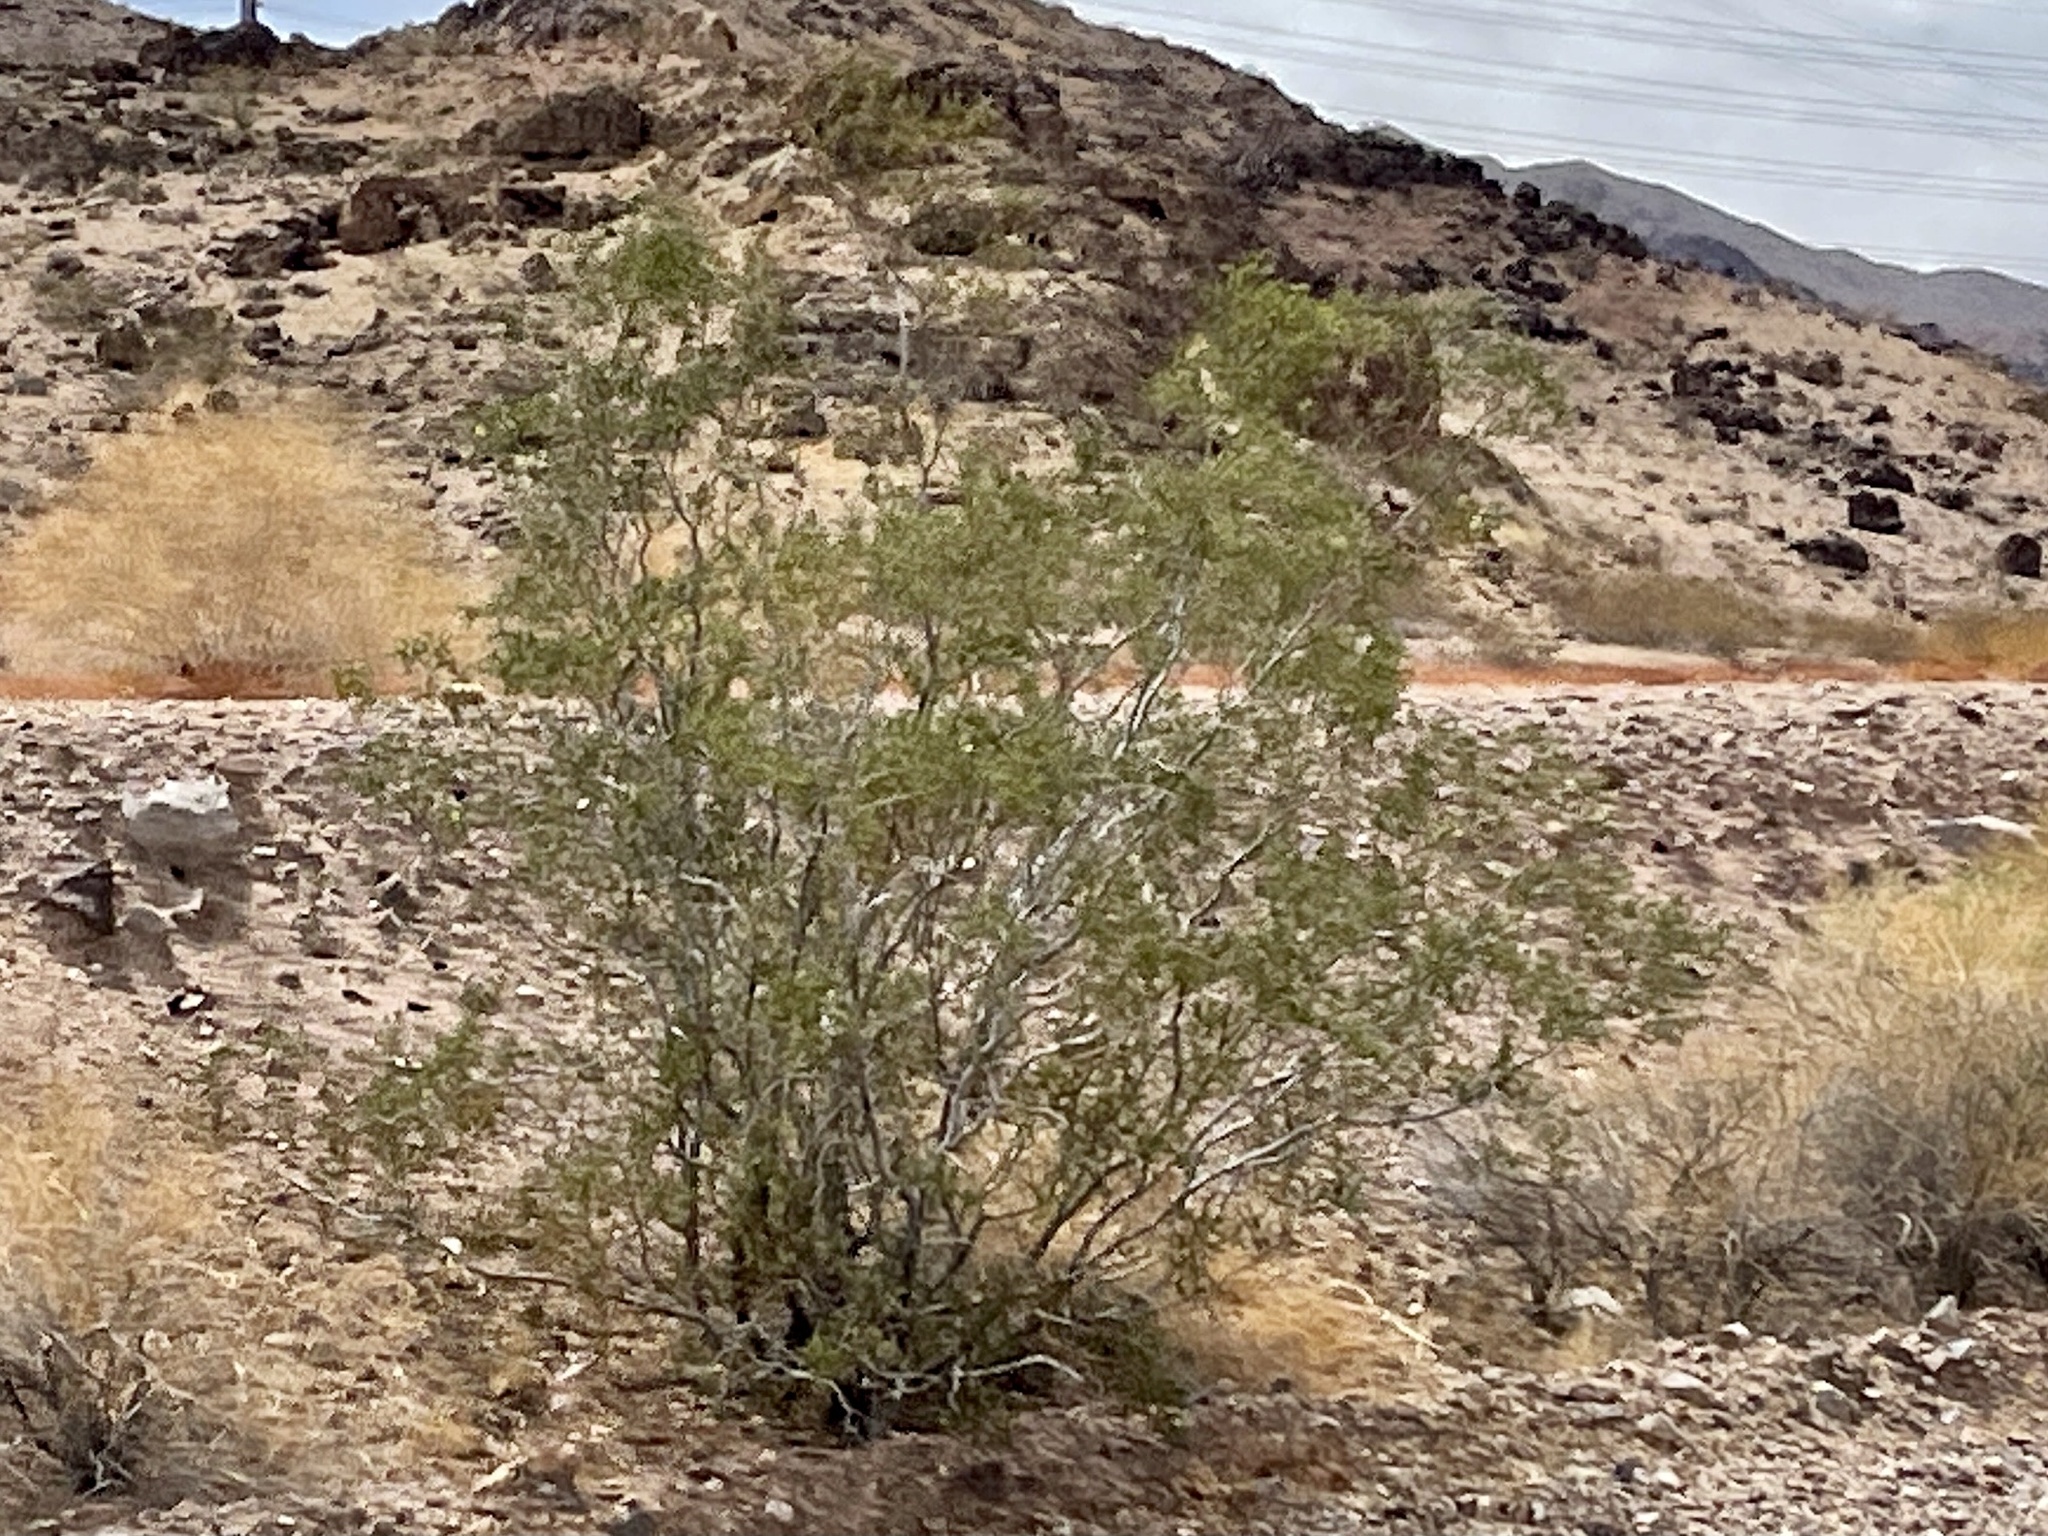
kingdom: Plantae
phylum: Tracheophyta
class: Magnoliopsida
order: Zygophyllales
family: Zygophyllaceae
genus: Larrea
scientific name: Larrea tridentata
